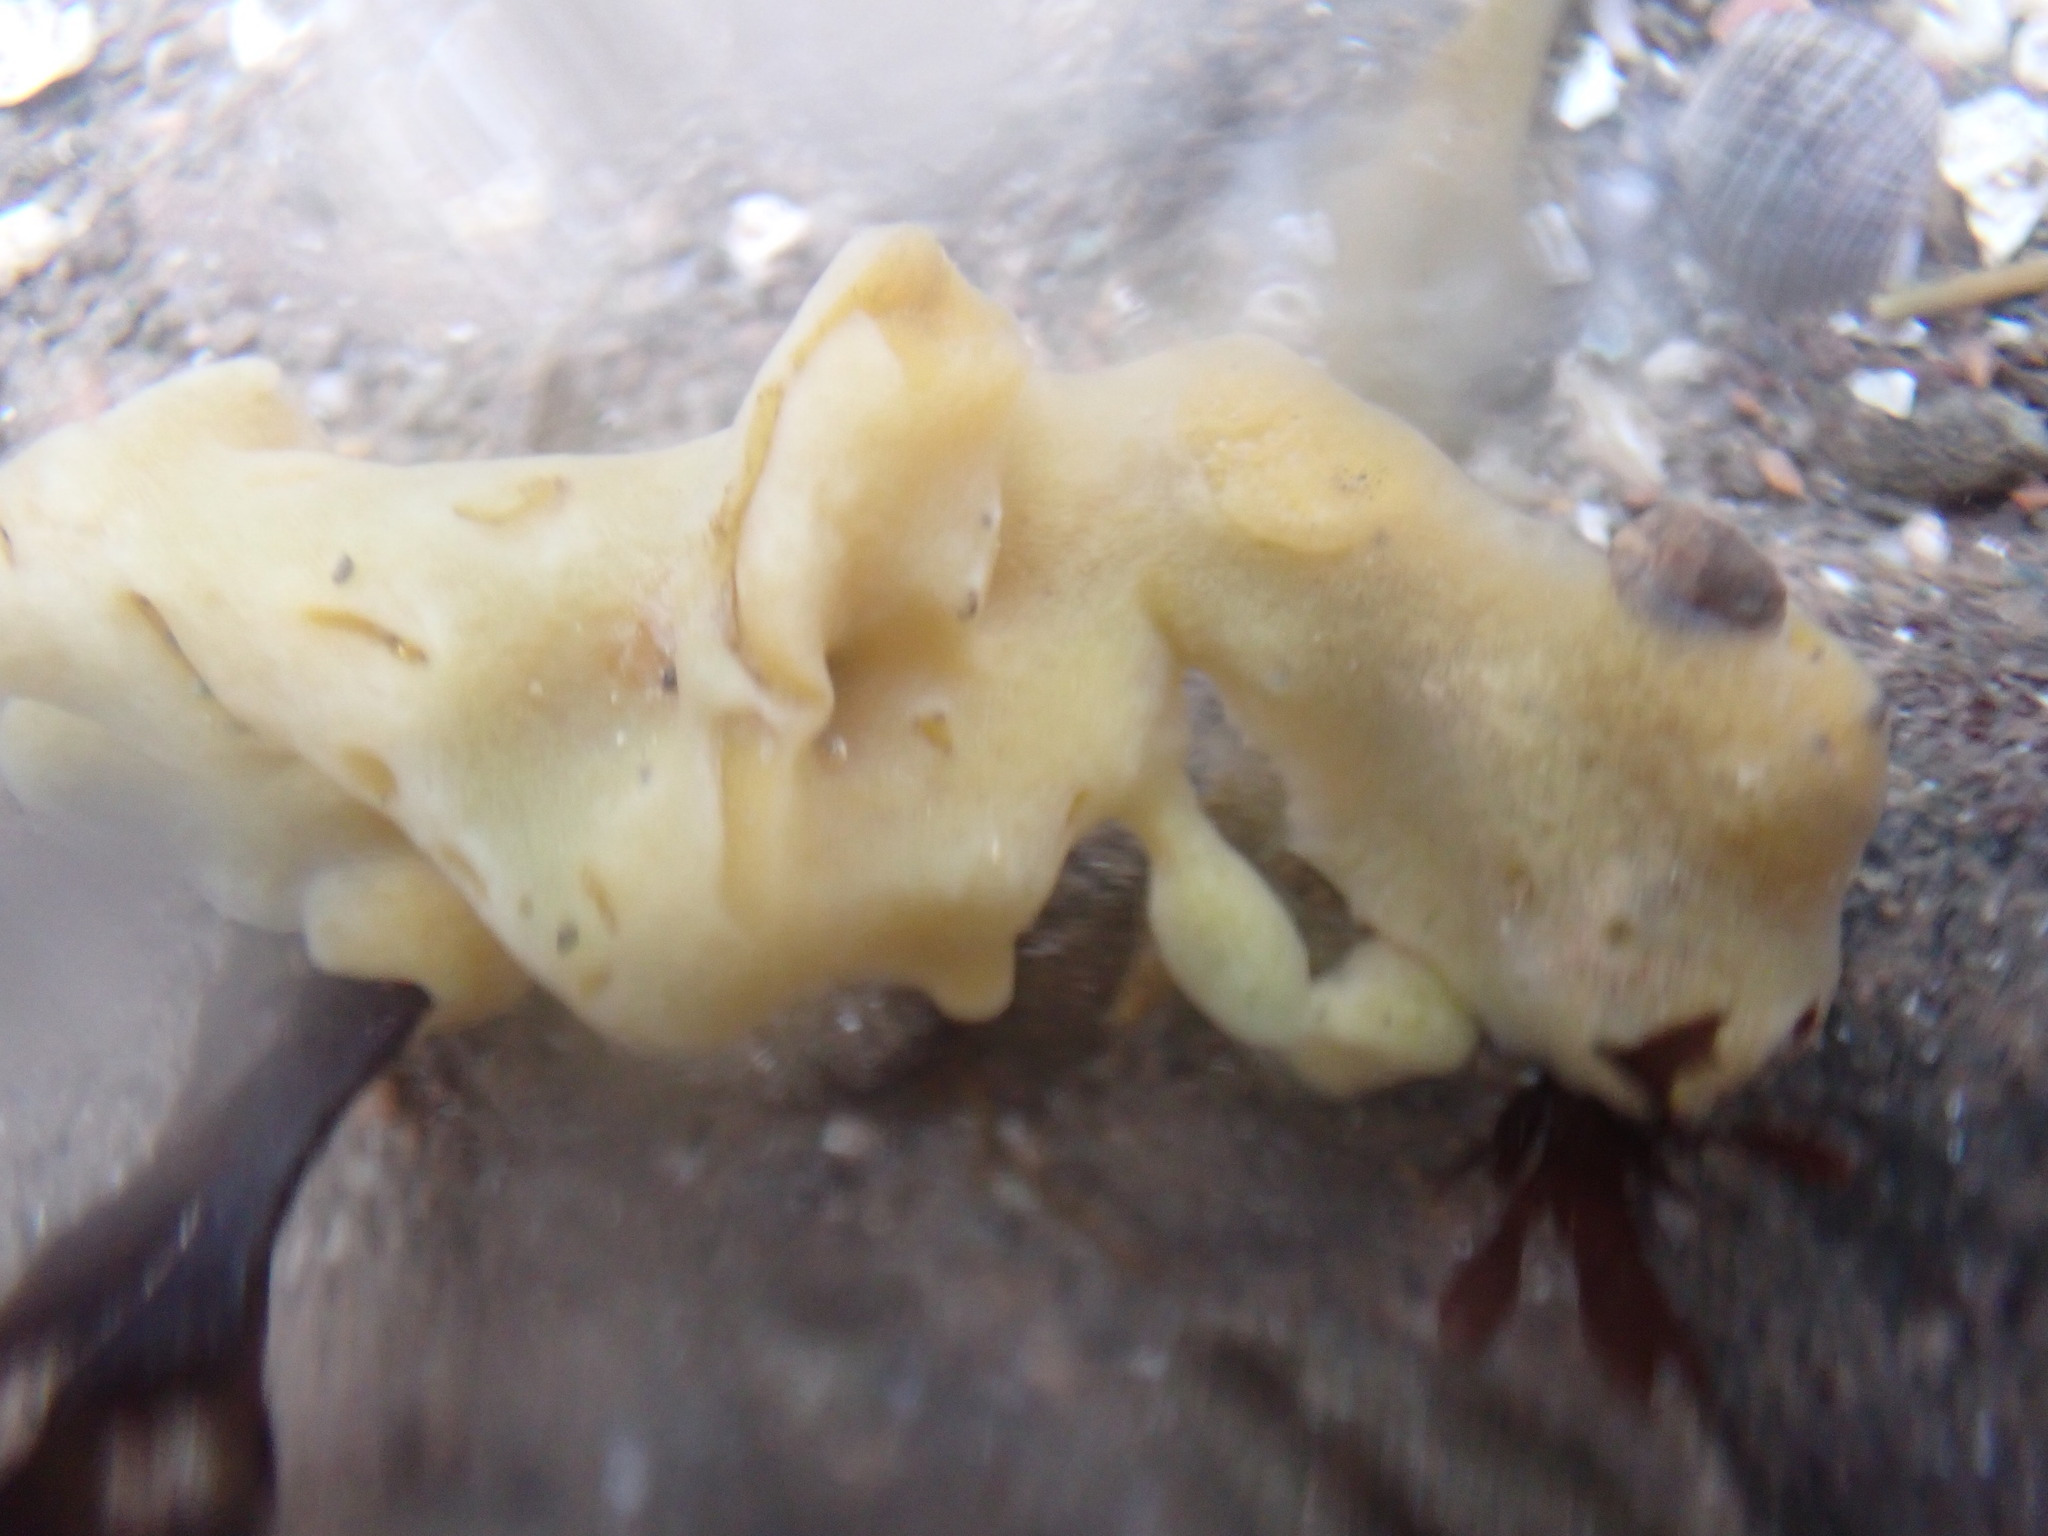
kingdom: Animalia
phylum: Porifera
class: Demospongiae
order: Suberitida
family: Halichondriidae
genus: Halichondria
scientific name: Halichondria panicea
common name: Breadcrumb sponge
